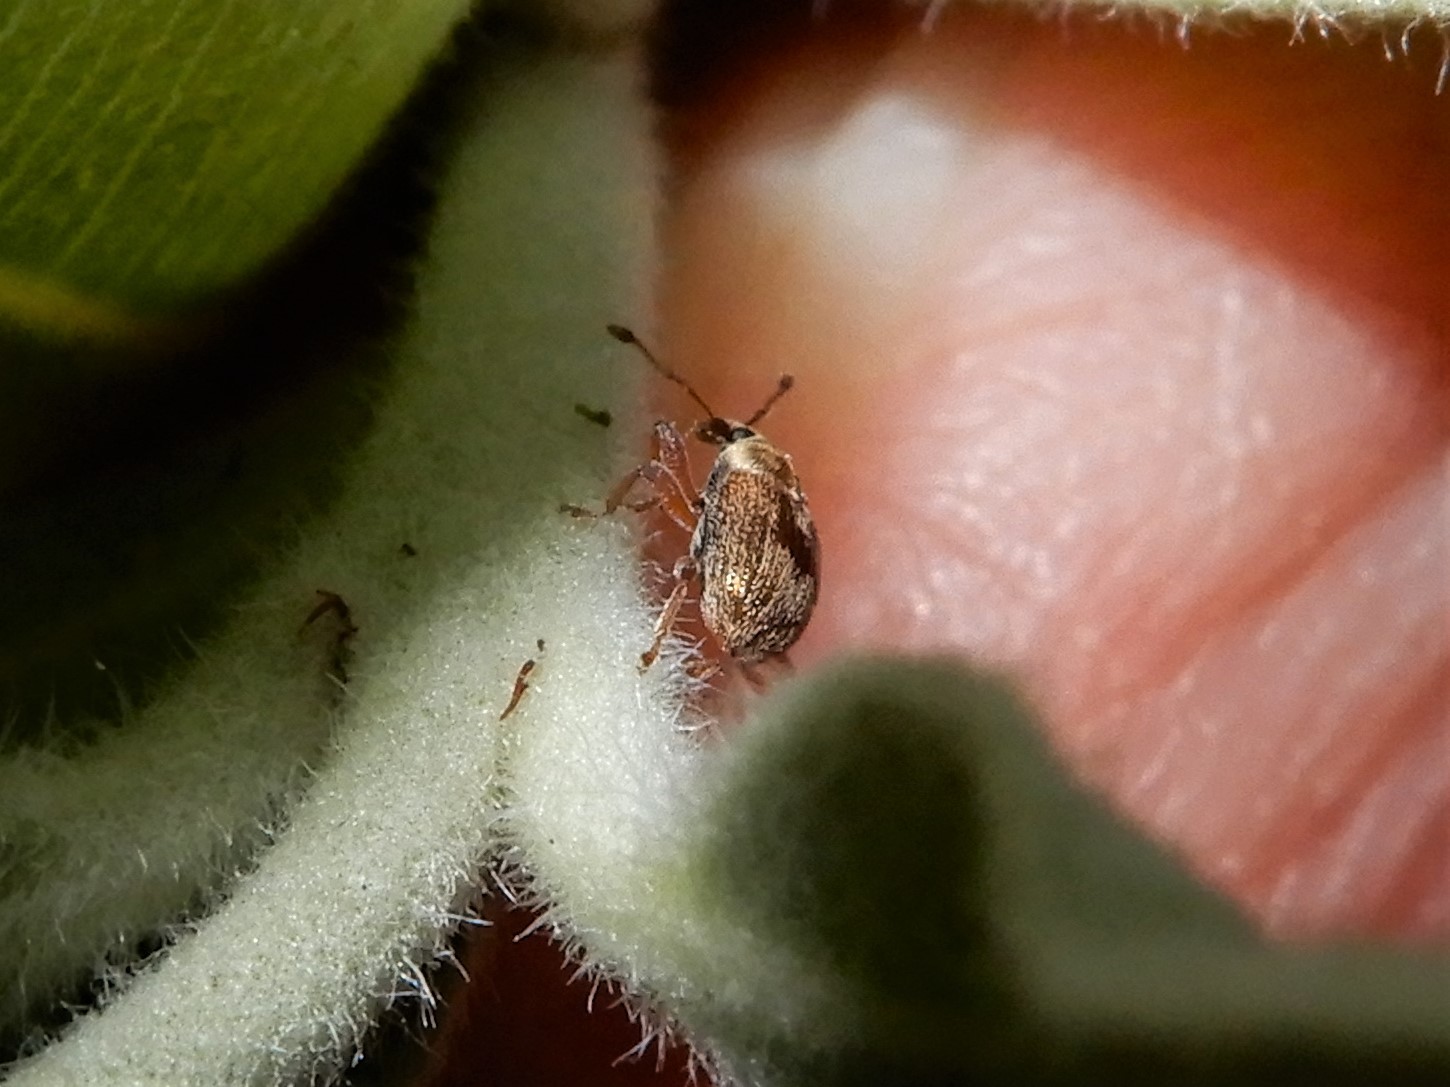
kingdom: Animalia
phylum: Arthropoda
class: Insecta
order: Coleoptera
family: Curculionidae
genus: Neomycta
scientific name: Neomycta rubida
